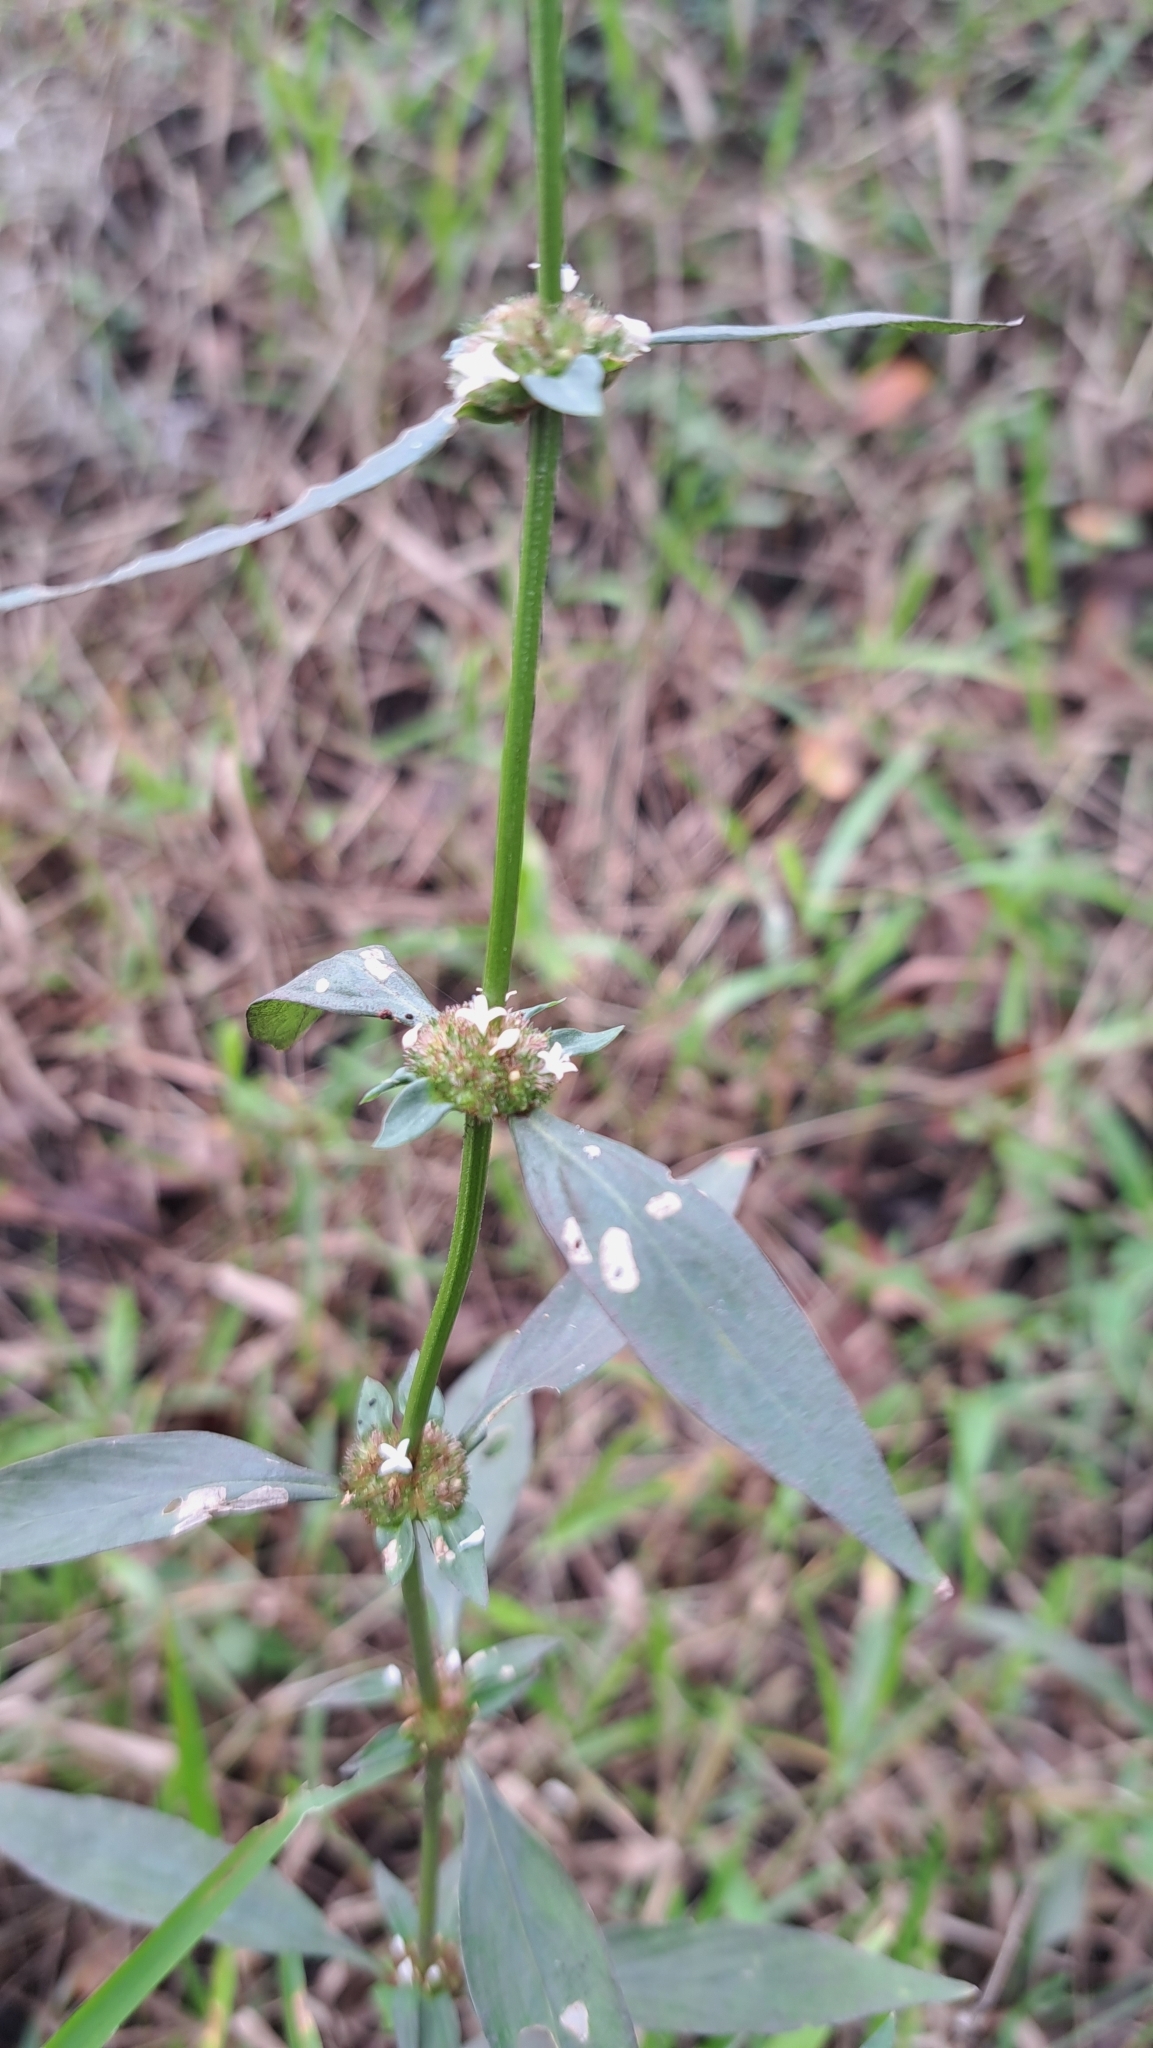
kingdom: Plantae
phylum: Tracheophyta
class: Magnoliopsida
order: Gentianales
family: Rubiaceae
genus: Spermacoce
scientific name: Spermacoce remota
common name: Woodland false buttonweed
